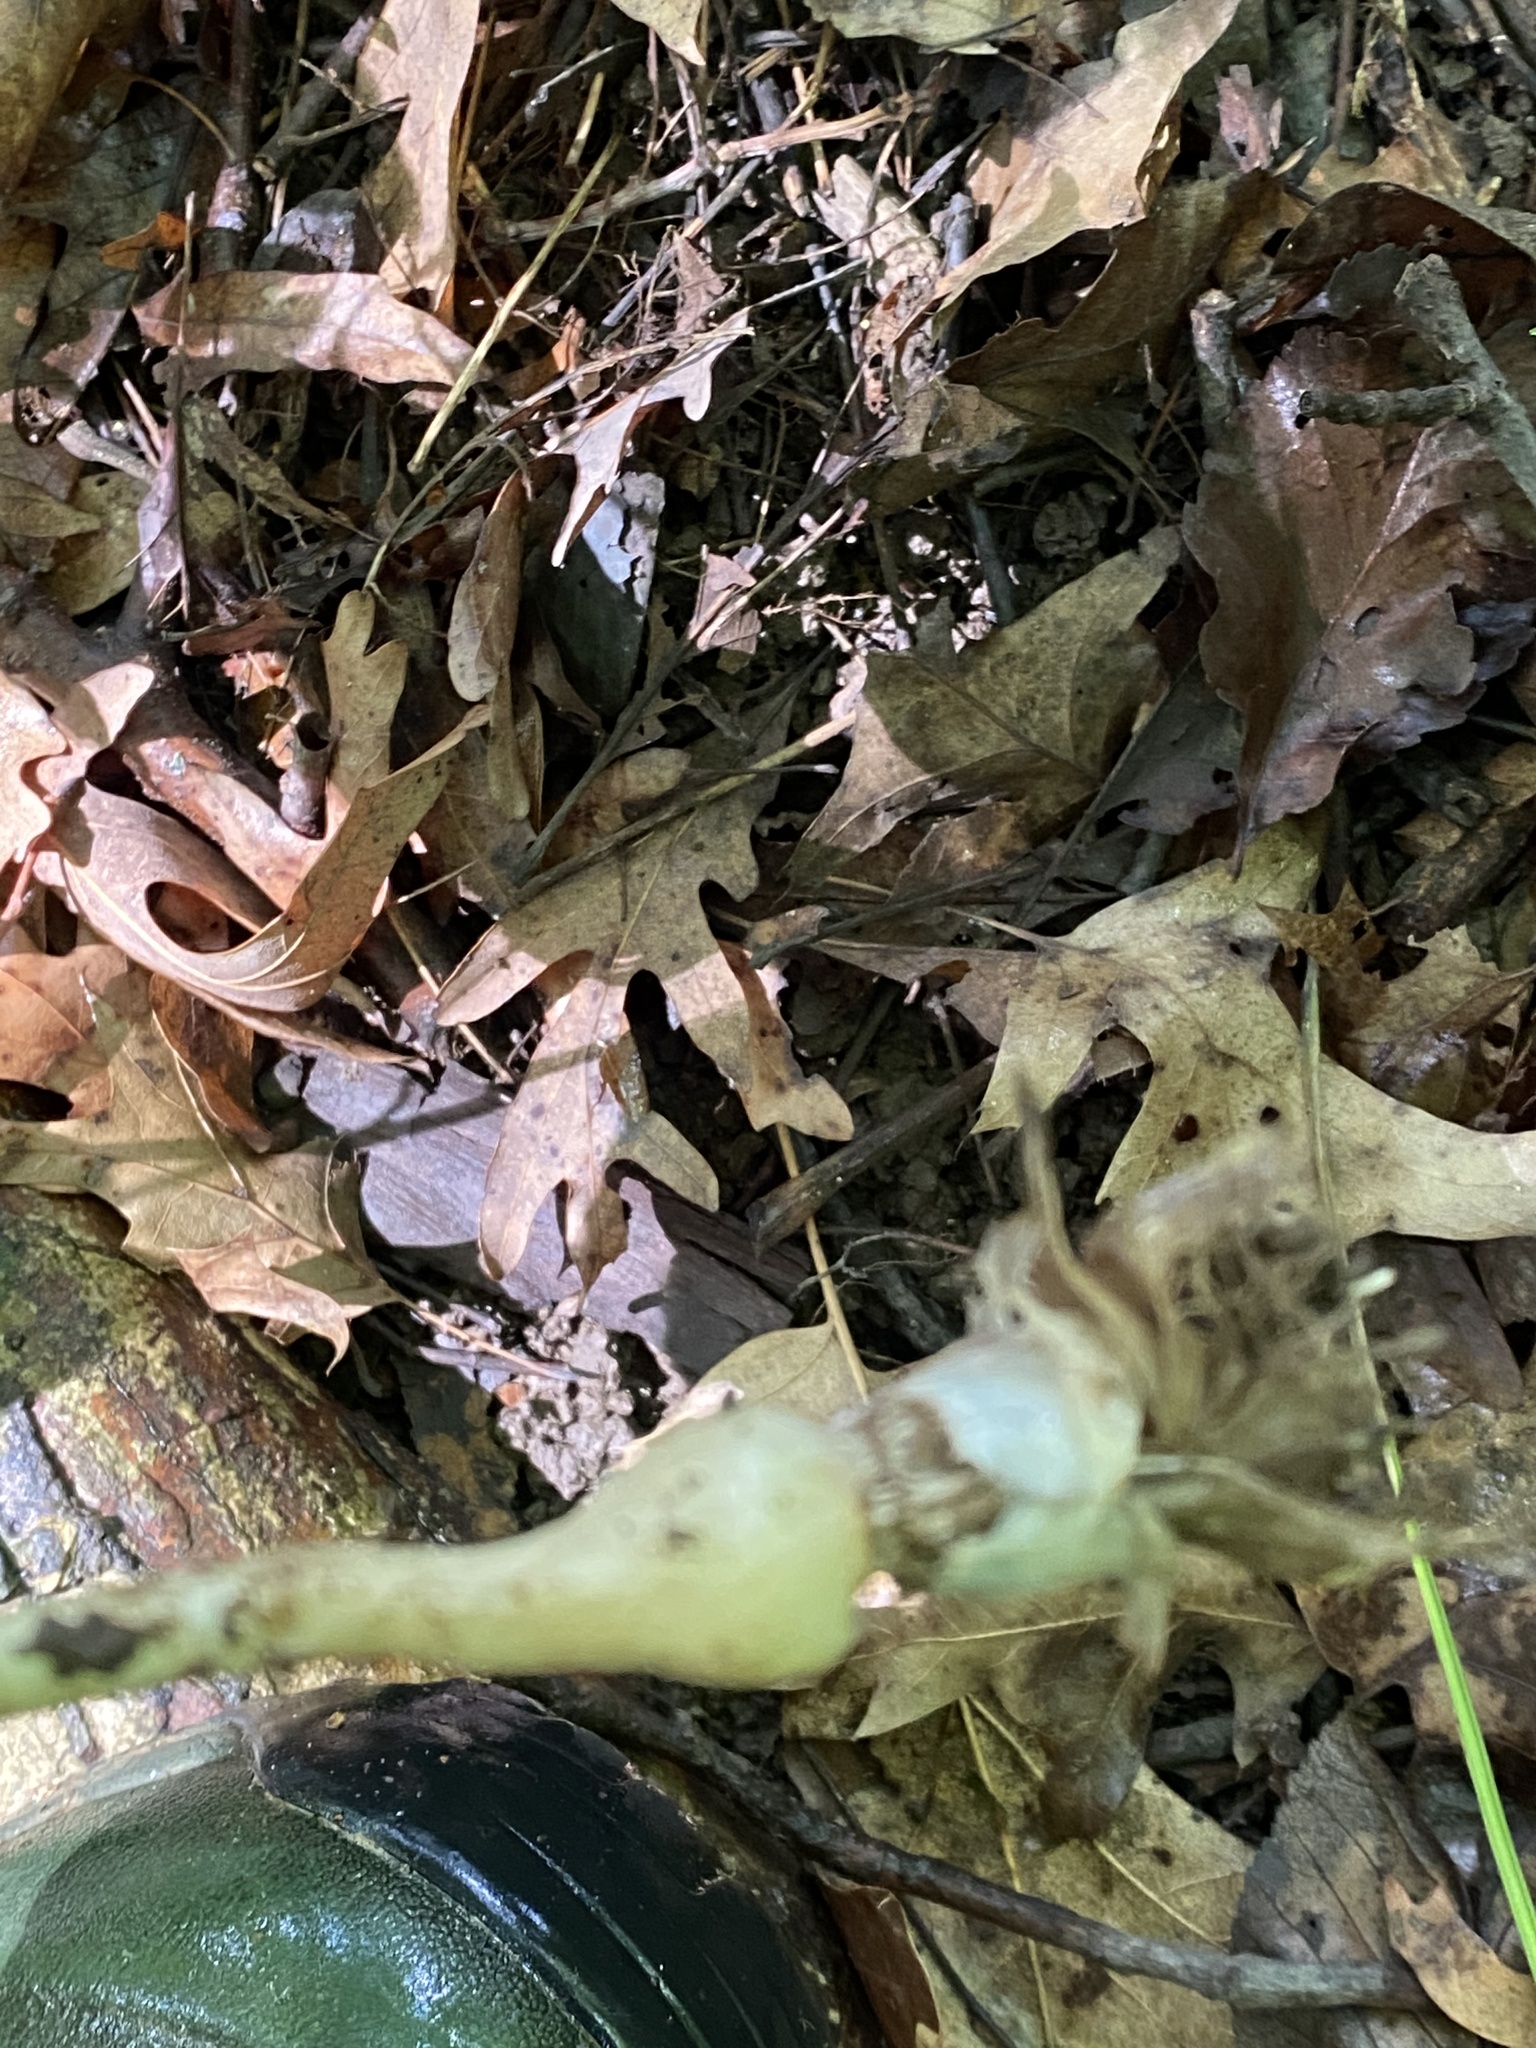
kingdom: Plantae
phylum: Tracheophyta
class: Liliopsida
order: Asparagales
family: Amaryllidaceae
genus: Allium
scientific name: Allium canadense
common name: Meadow garlic
